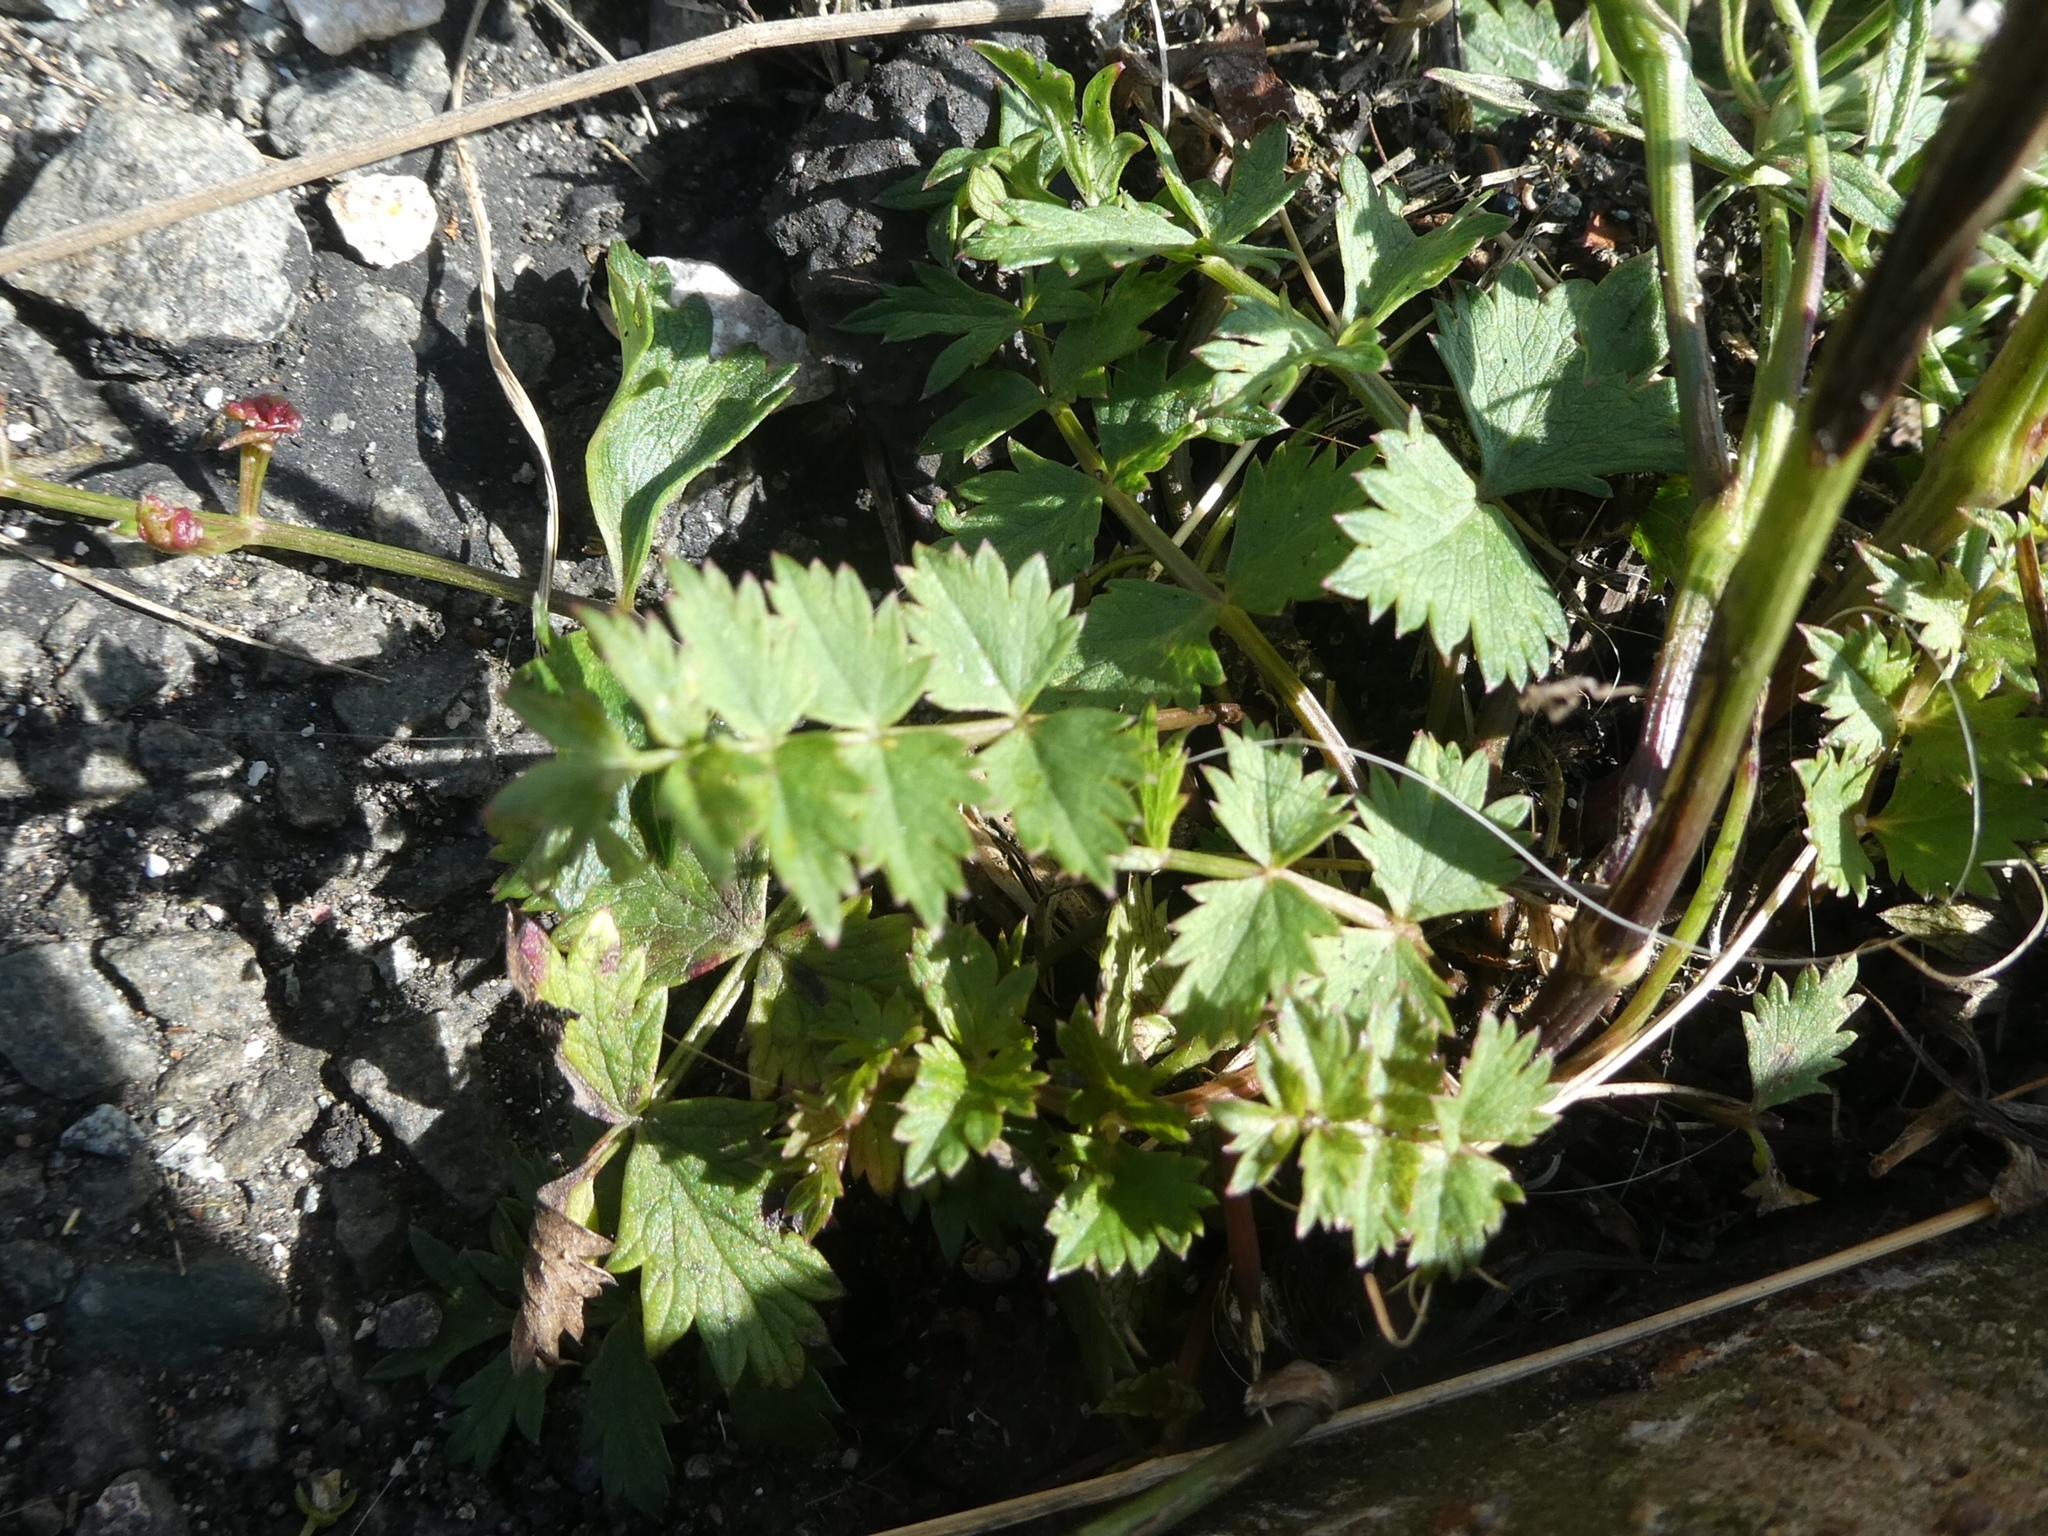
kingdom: Plantae
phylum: Tracheophyta
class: Magnoliopsida
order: Apiales
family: Apiaceae
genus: Pimpinella
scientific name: Pimpinella saxifraga
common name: Burnet-saxifrage
